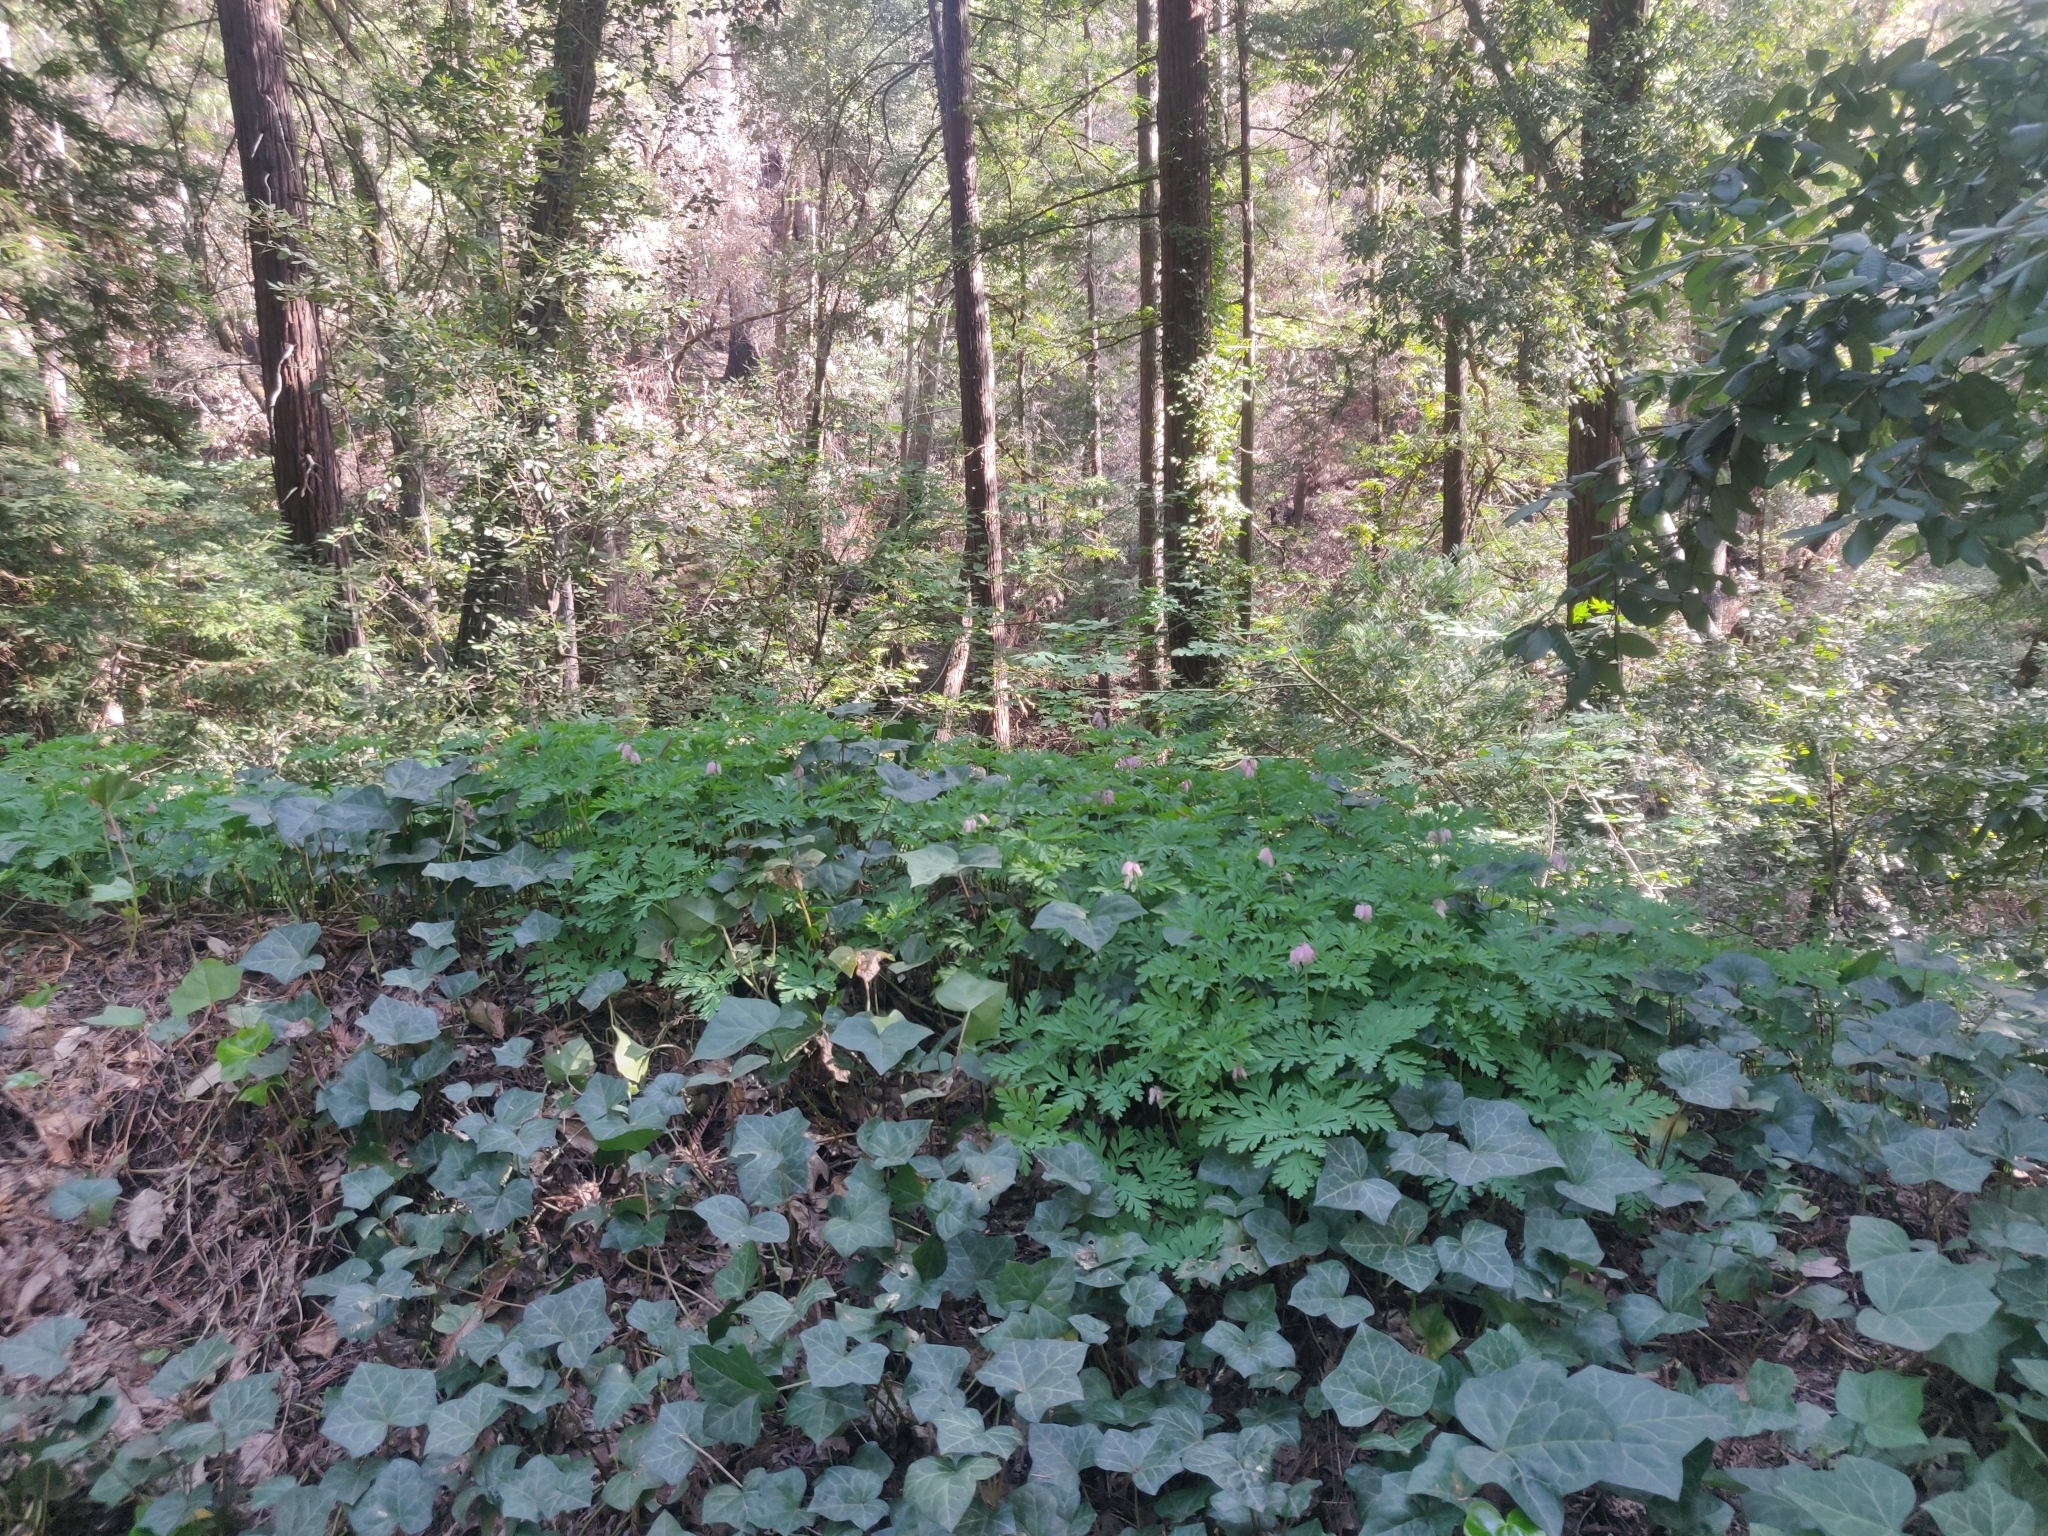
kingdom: Plantae
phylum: Tracheophyta
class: Magnoliopsida
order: Ranunculales
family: Papaveraceae
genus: Dicentra
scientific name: Dicentra formosa
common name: Bleeding-heart
